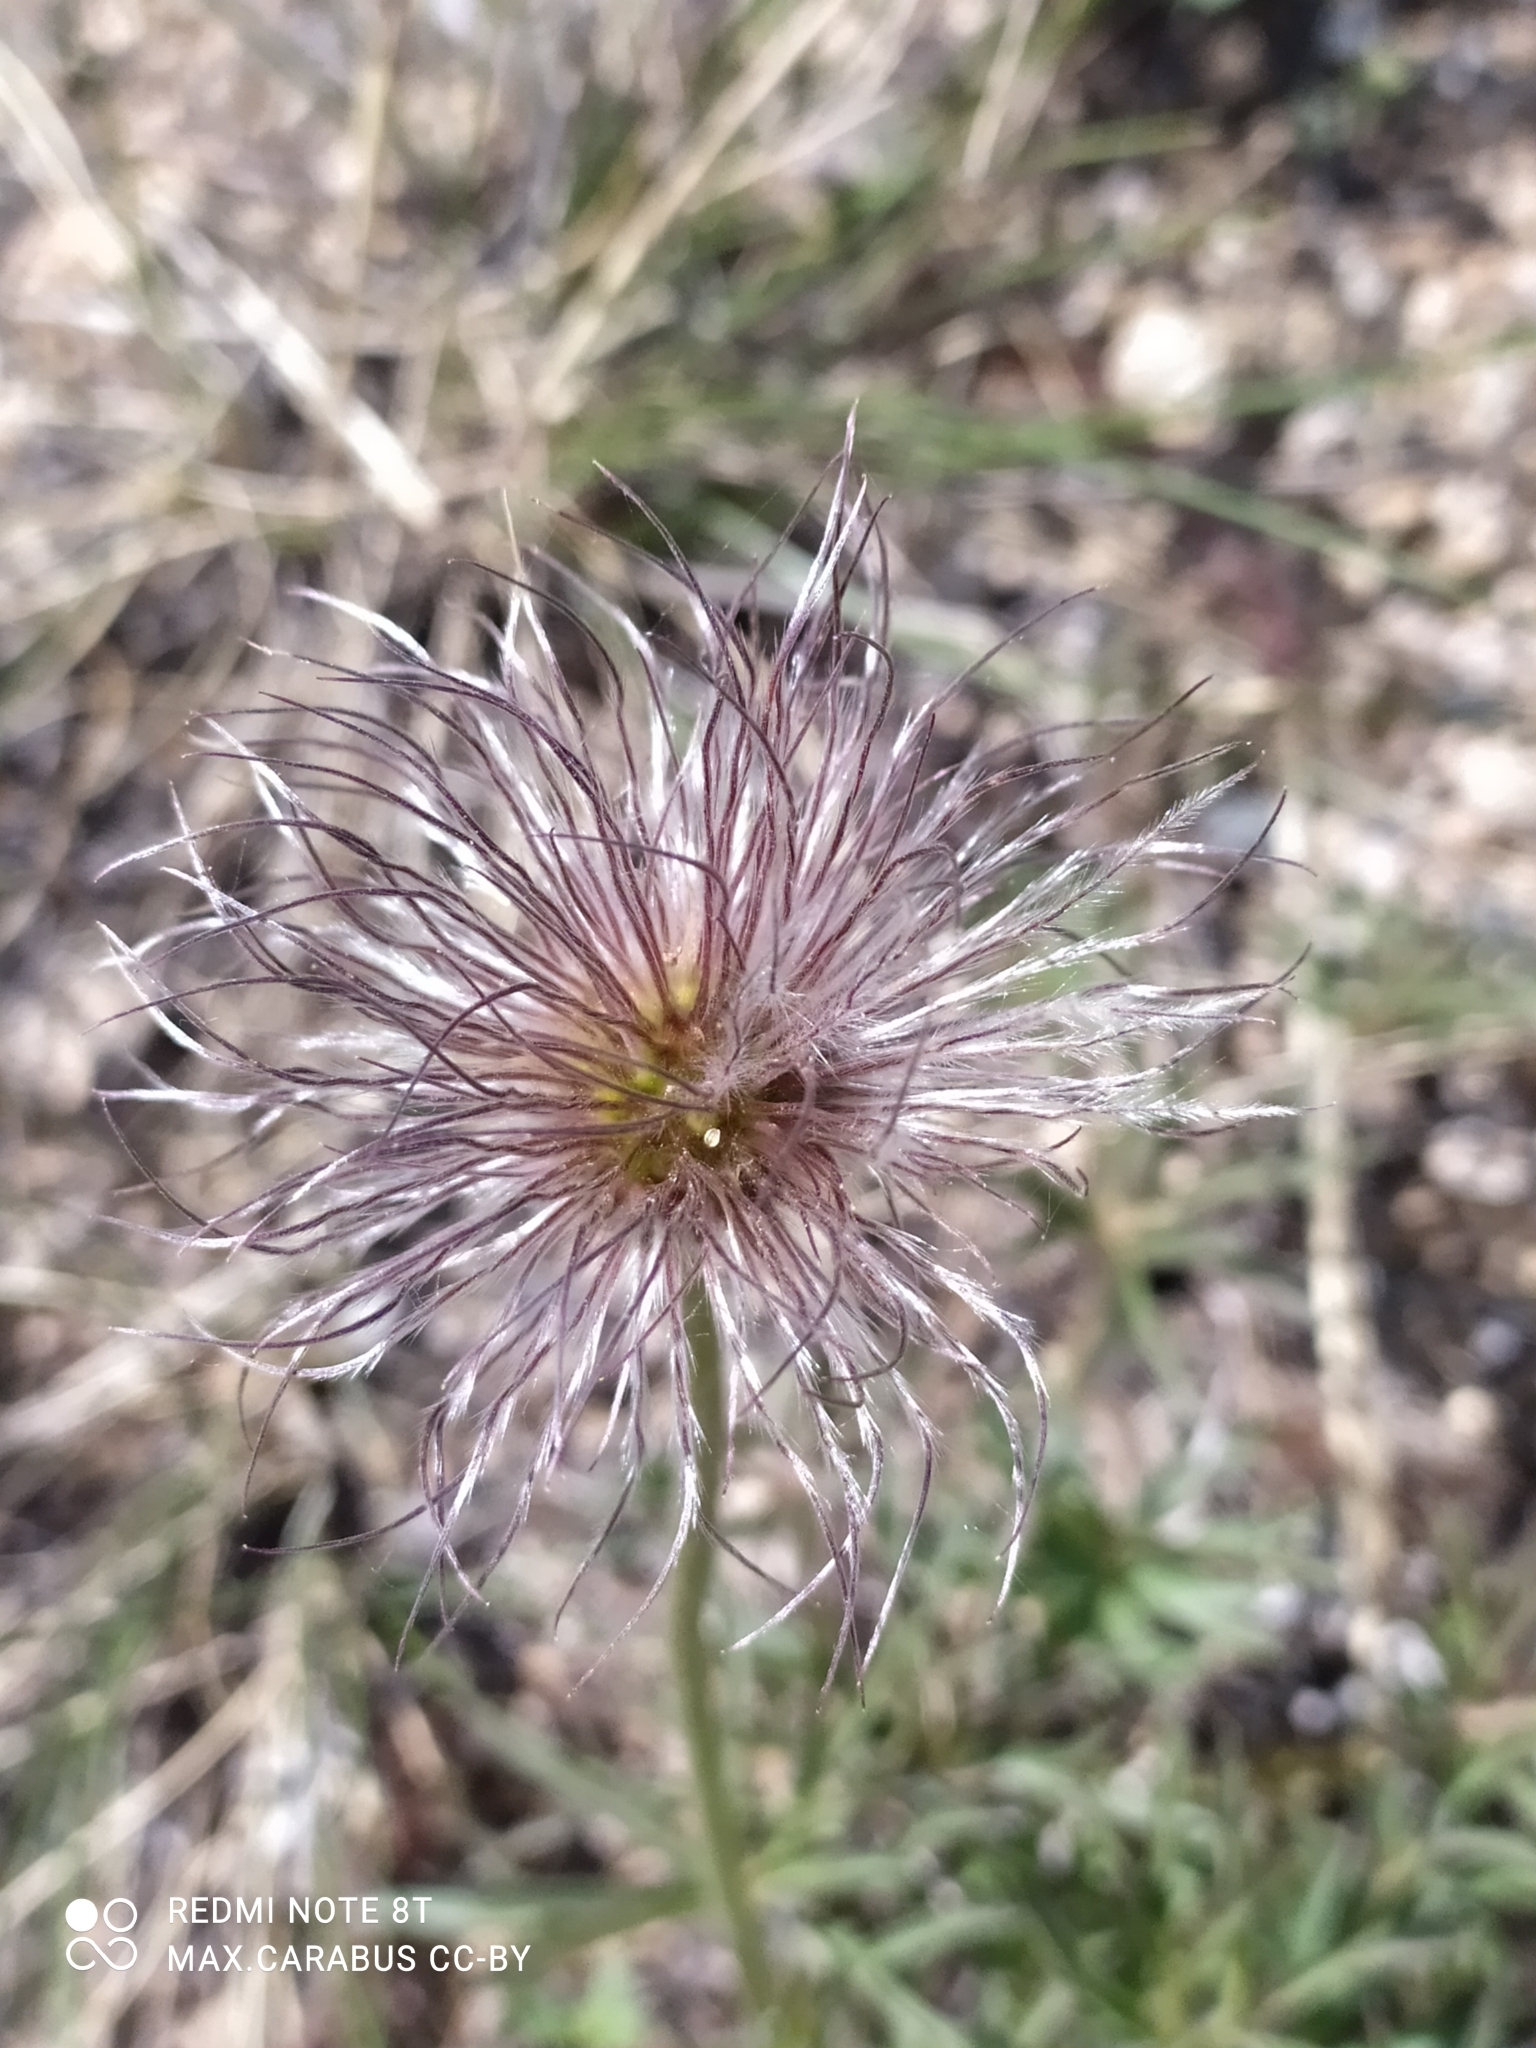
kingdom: Plantae
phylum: Tracheophyta
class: Magnoliopsida
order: Ranunculales
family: Ranunculaceae
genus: Pulsatilla
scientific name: Pulsatilla patens
